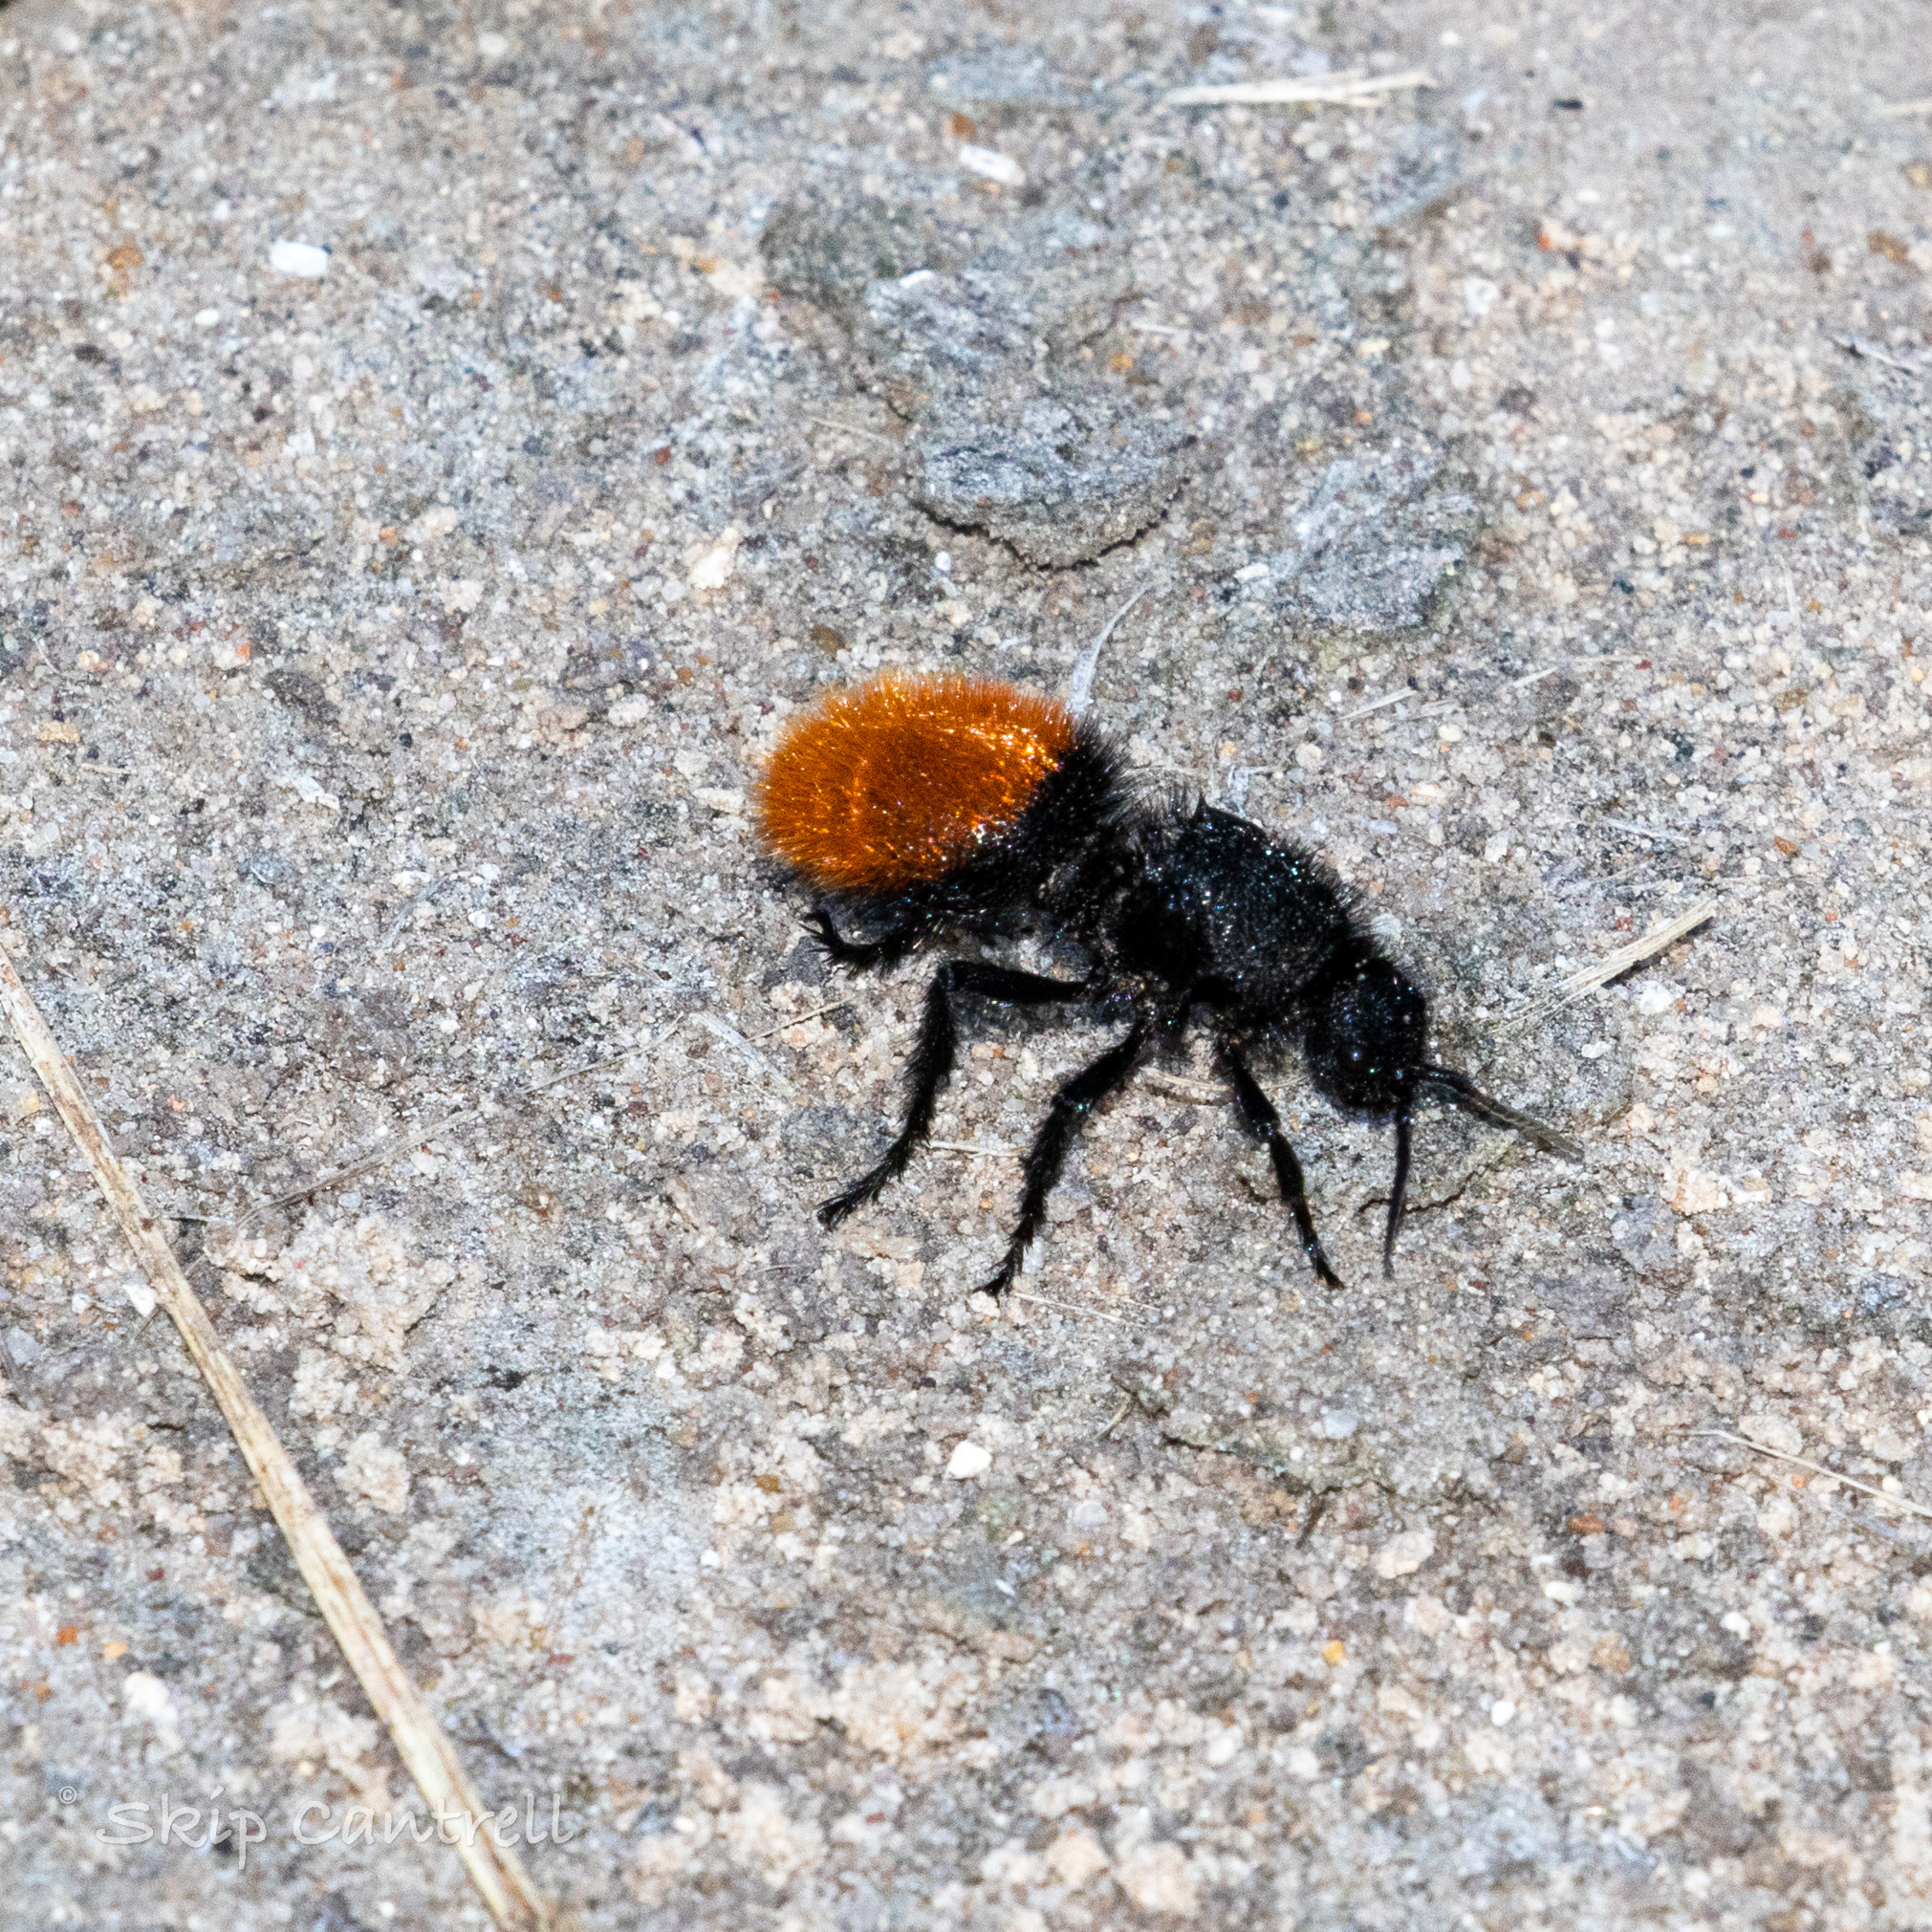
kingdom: Animalia
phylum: Arthropoda
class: Insecta
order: Hymenoptera
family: Mutillidae
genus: Dasymutilla
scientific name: Dasymutilla
